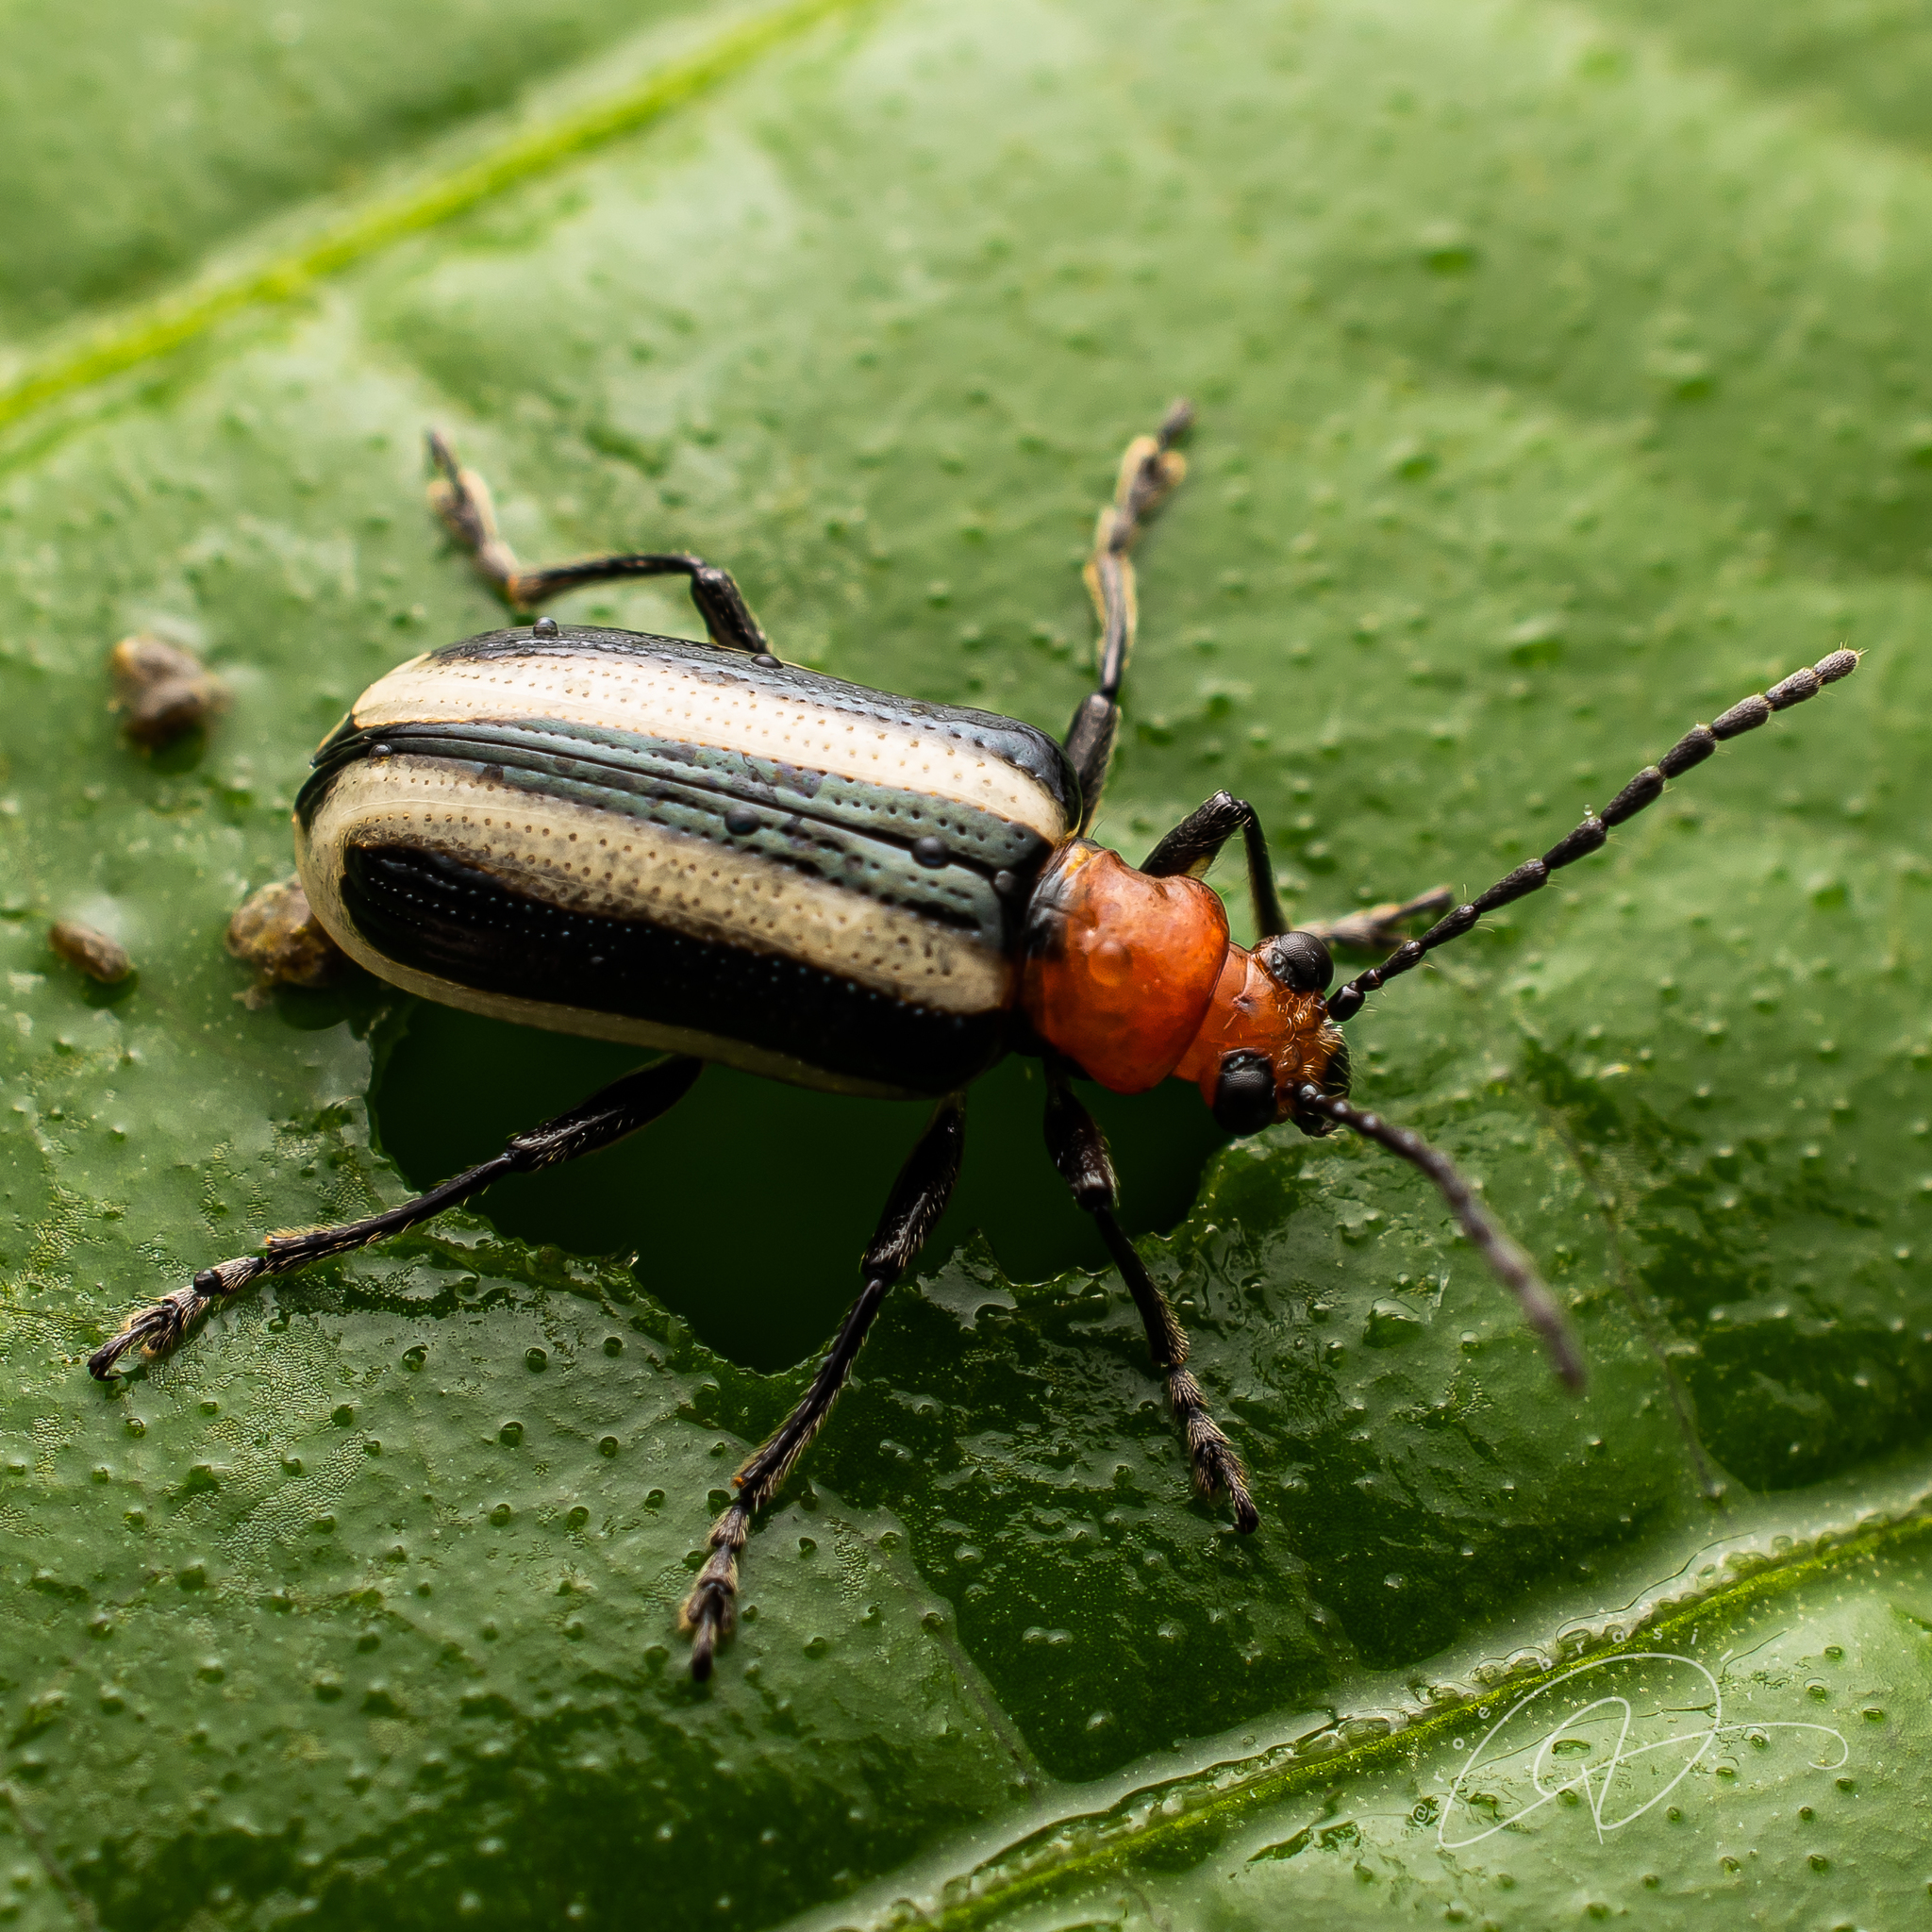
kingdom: Animalia
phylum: Arthropoda
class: Insecta
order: Coleoptera
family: Chrysomelidae
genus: Lema
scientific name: Lema
